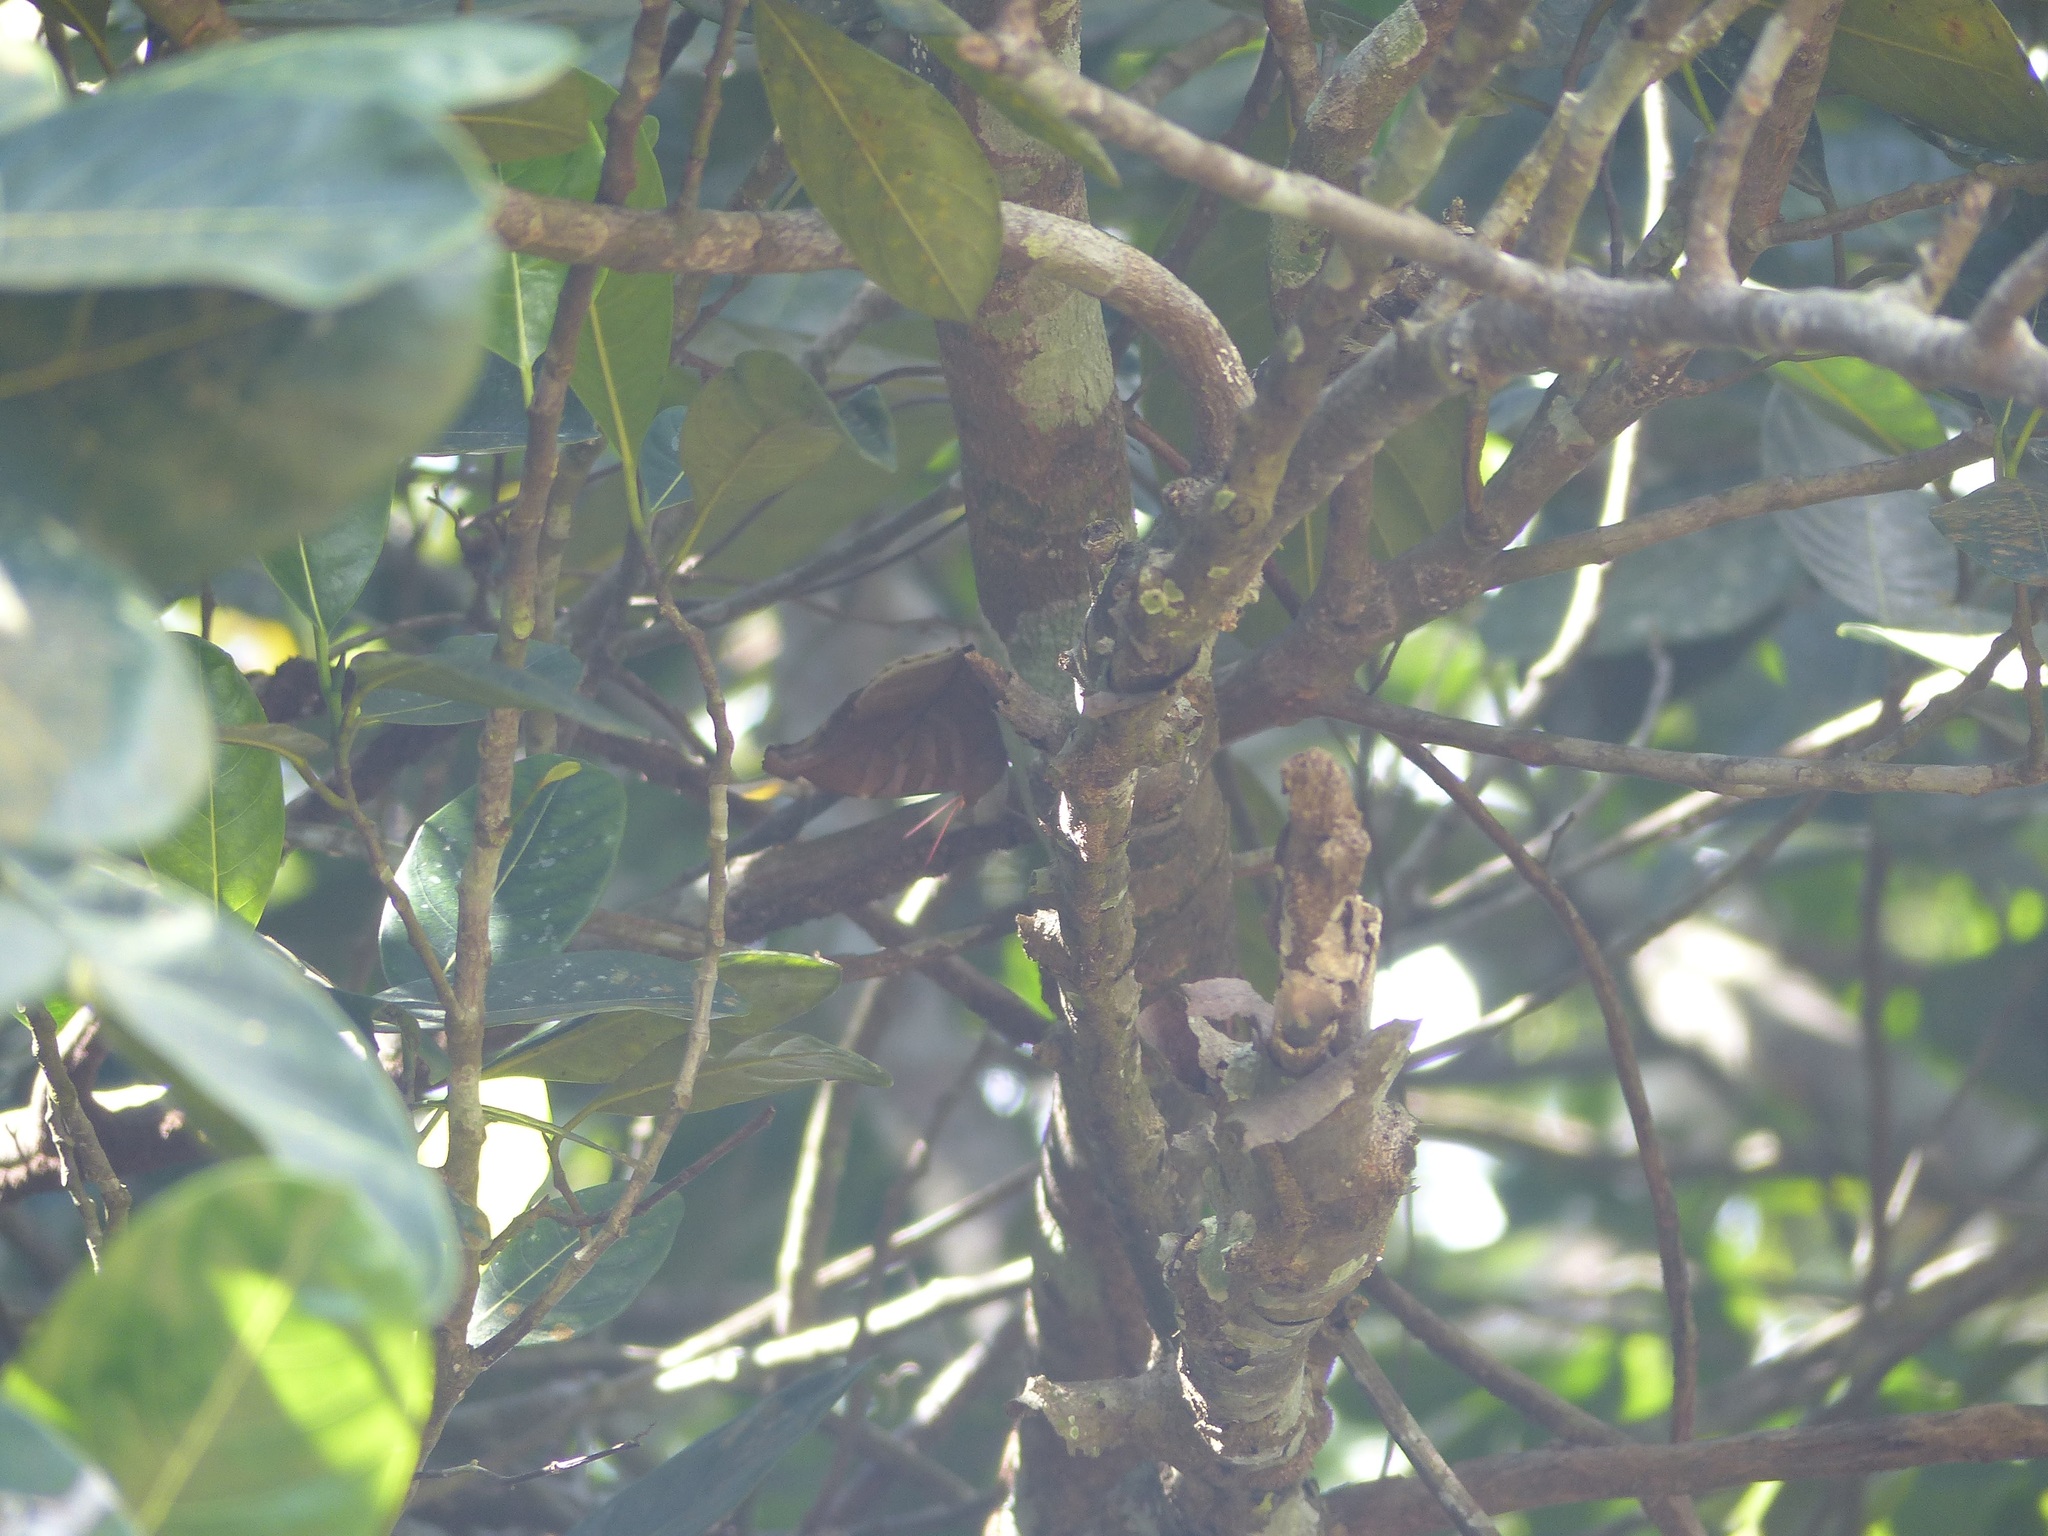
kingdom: Animalia
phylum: Arthropoda
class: Insecta
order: Lepidoptera
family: Nymphalidae
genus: Historis
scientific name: Historis odius
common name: Orion cecropian
